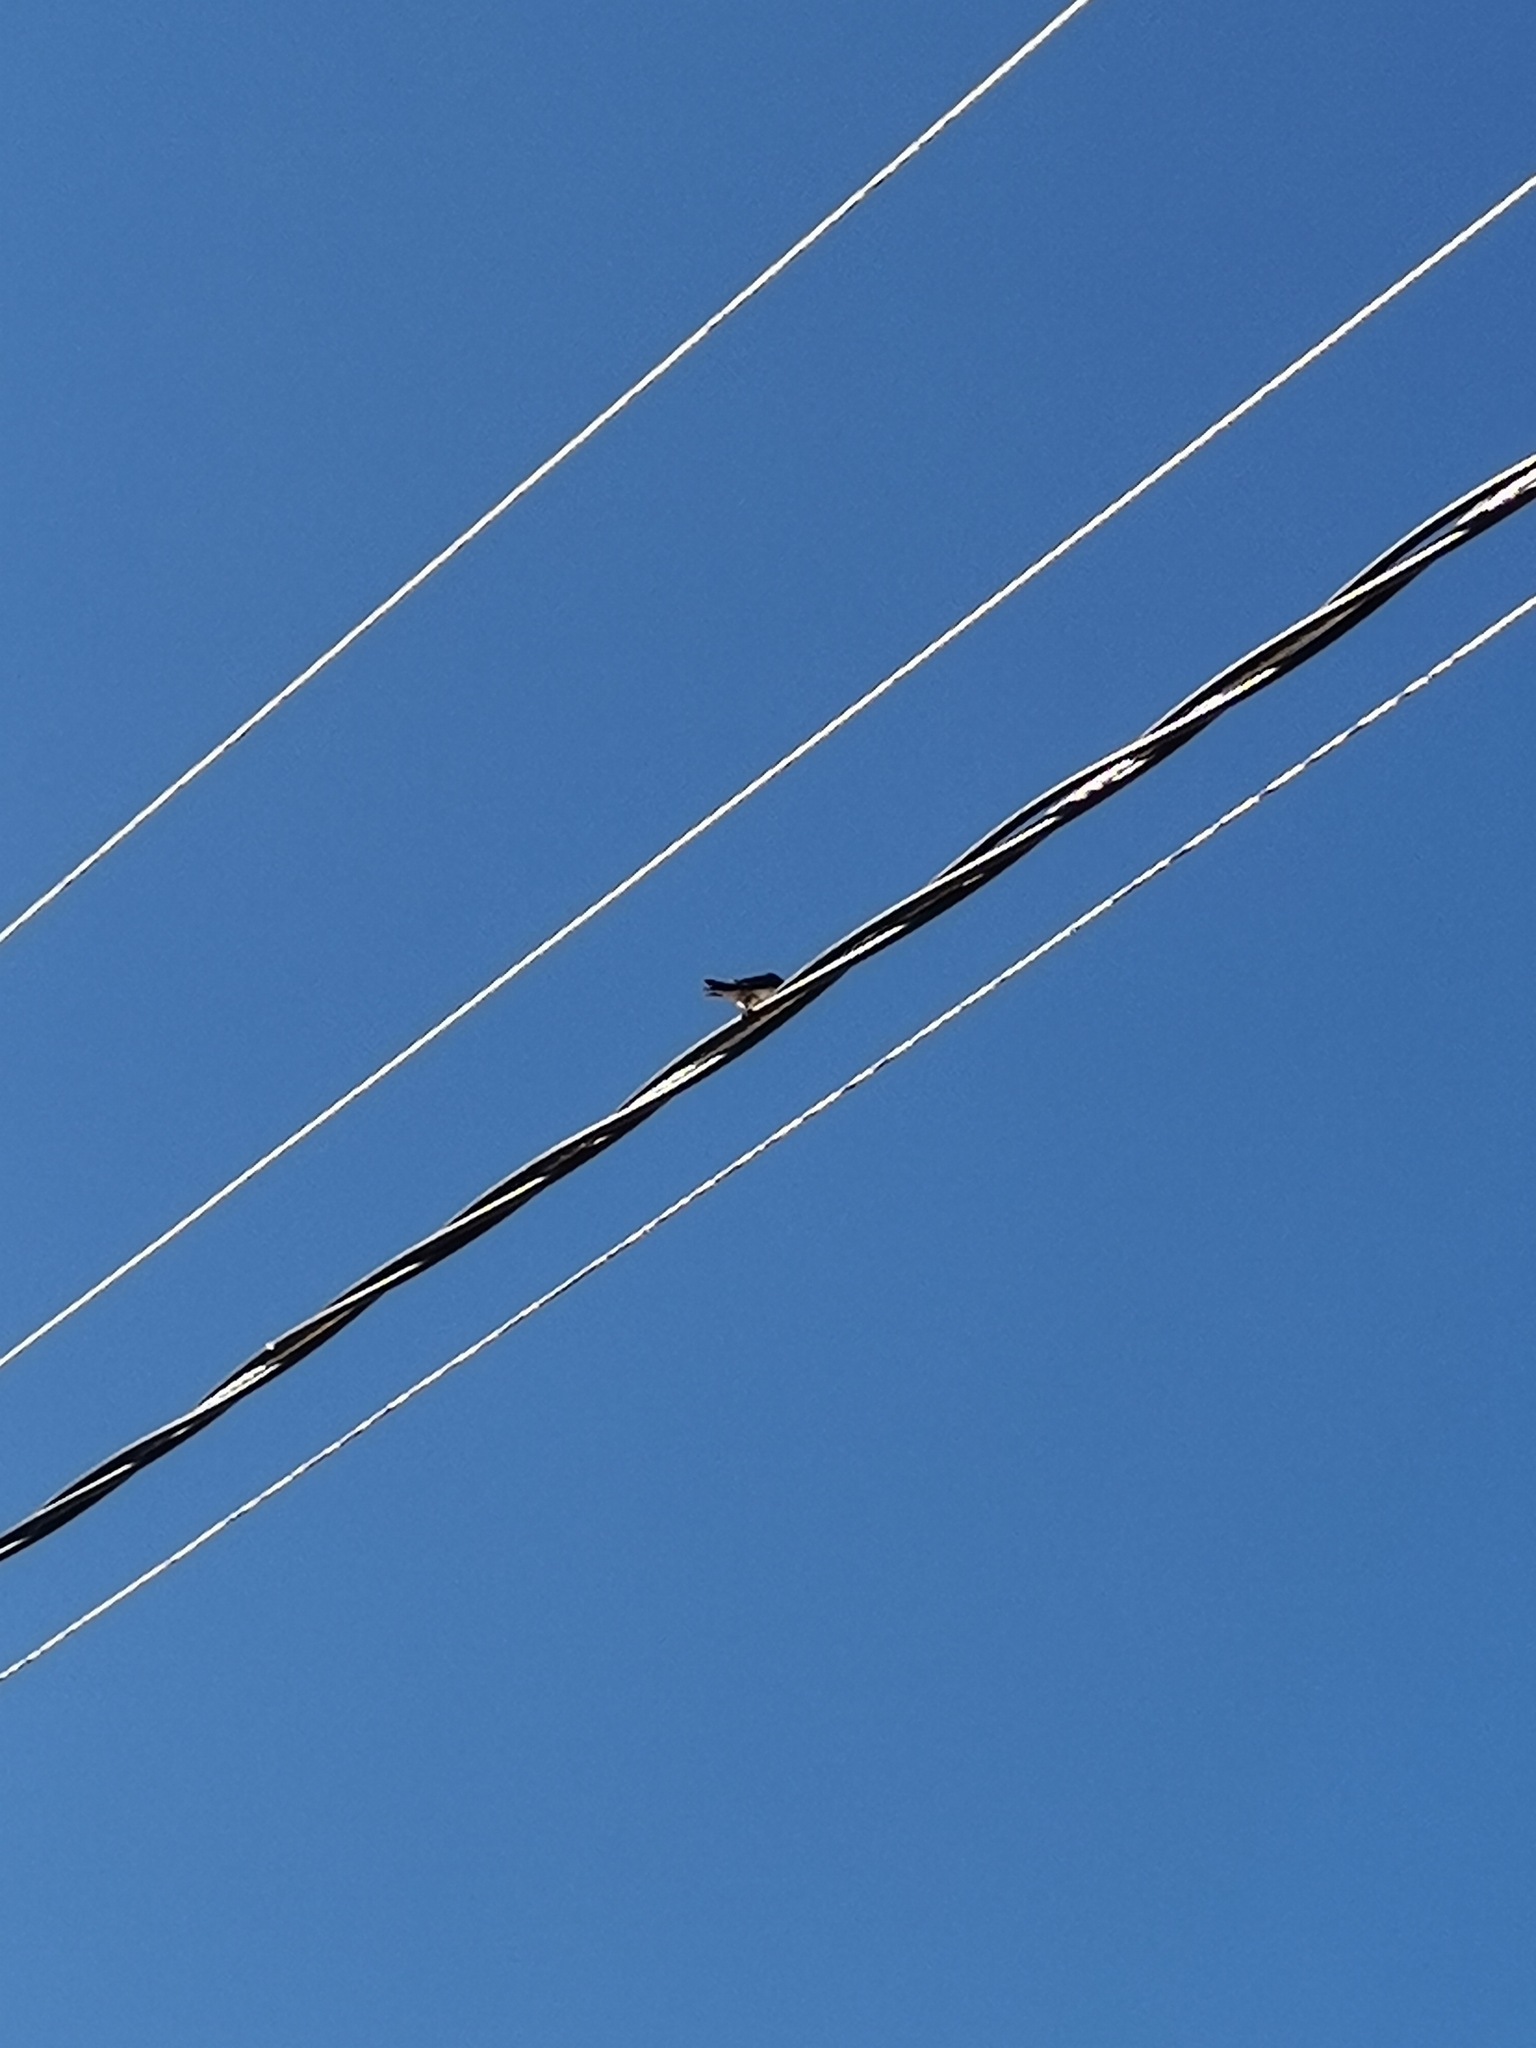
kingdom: Animalia
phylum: Chordata
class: Aves
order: Passeriformes
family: Hirundinidae
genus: Hirundo
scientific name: Hirundo rustica
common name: Barn swallow
